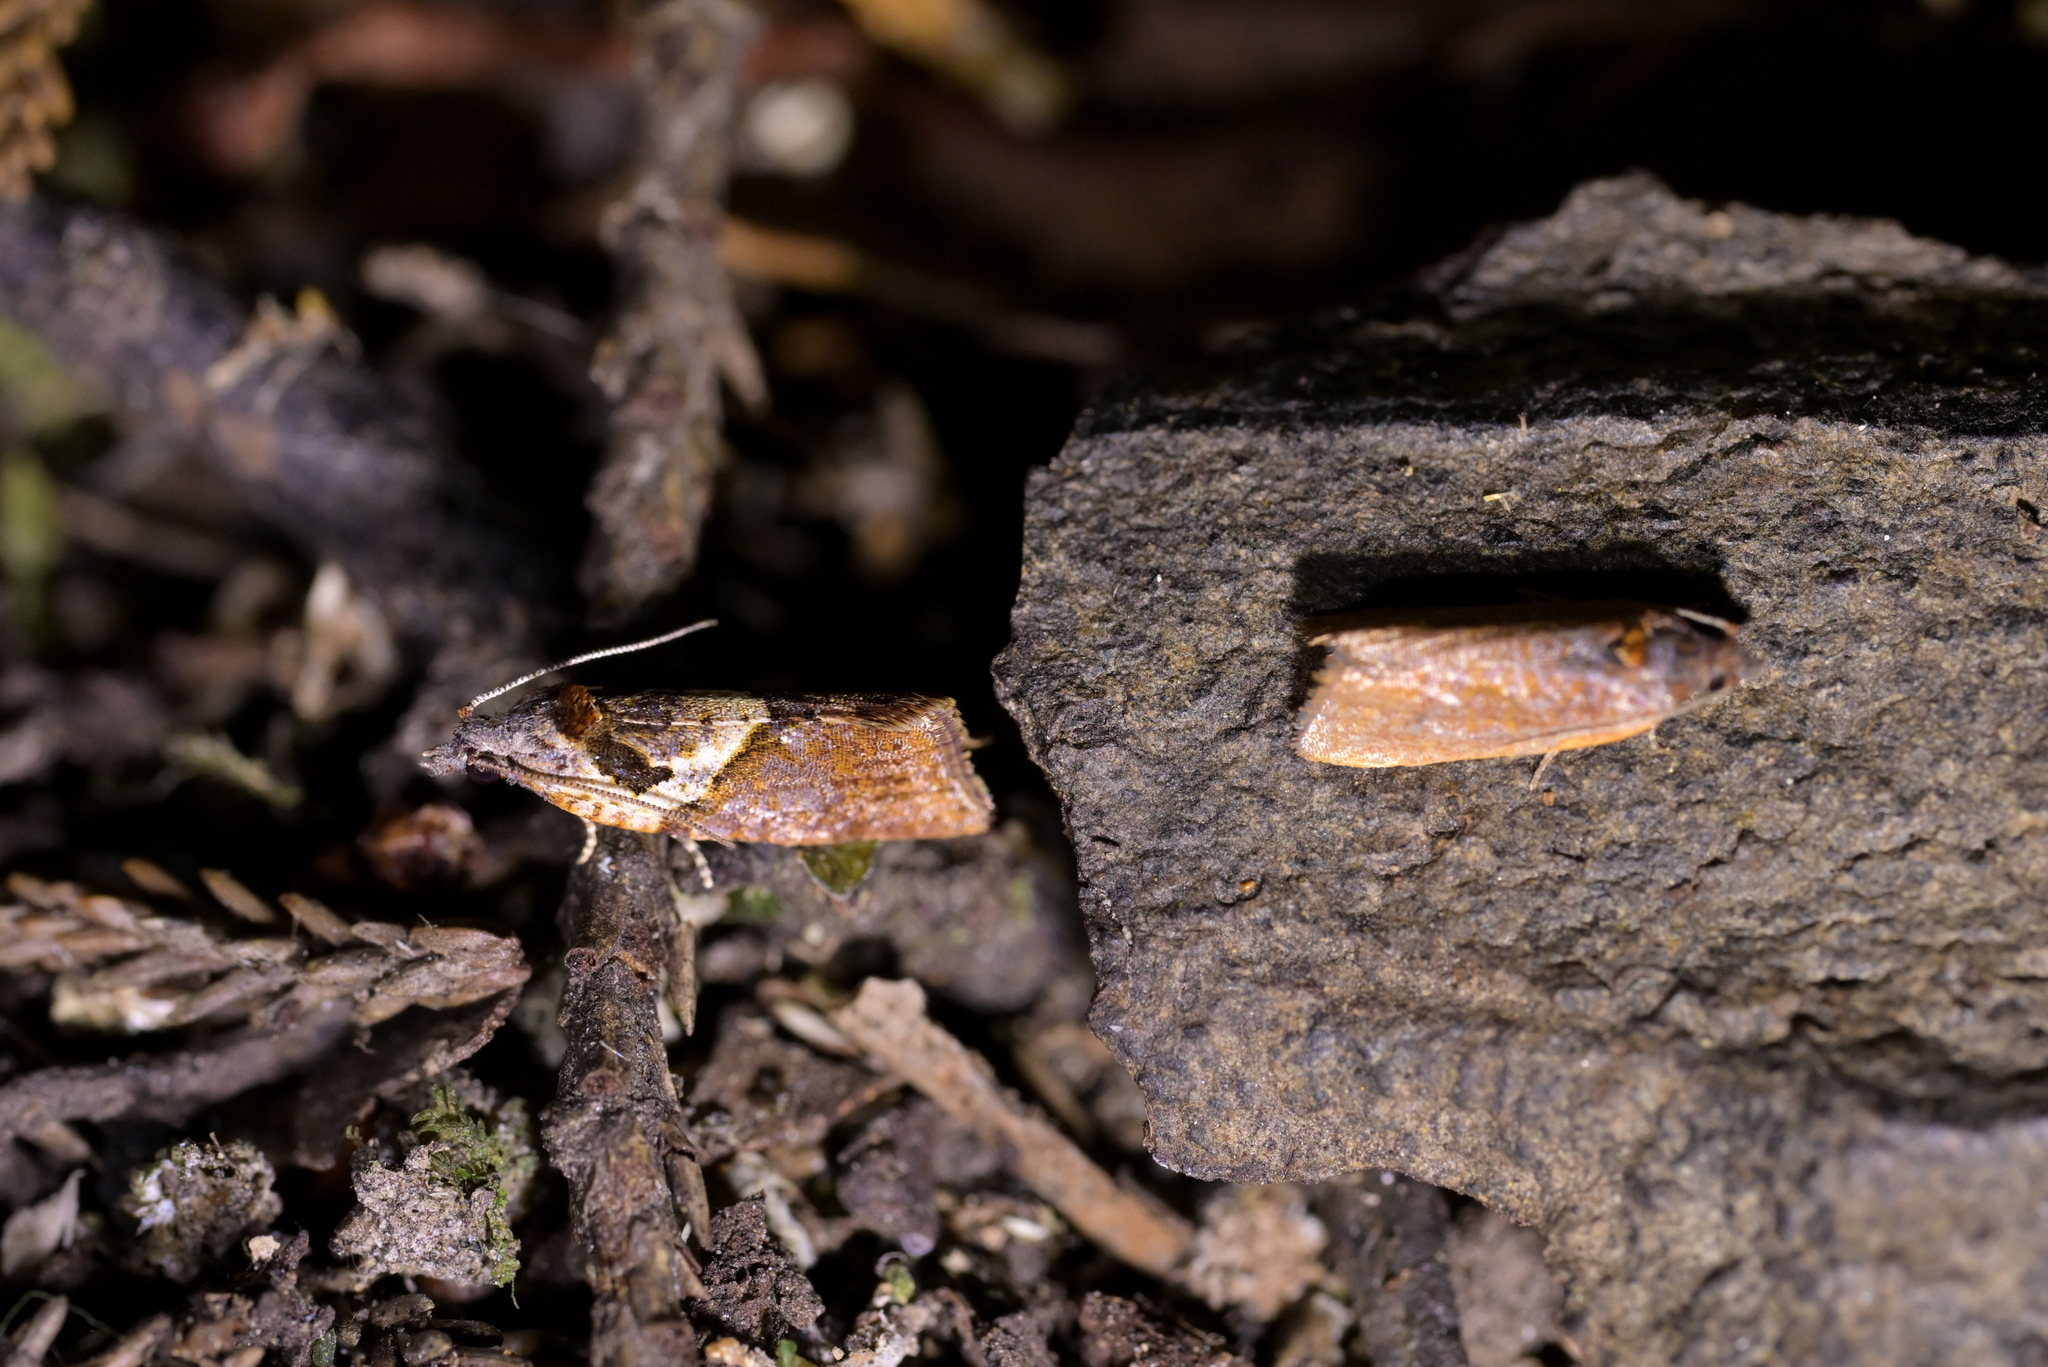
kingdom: Animalia
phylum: Arthropoda
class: Insecta
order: Lepidoptera
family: Tortricidae
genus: Pyrgotis
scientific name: Pyrgotis plagiatana
